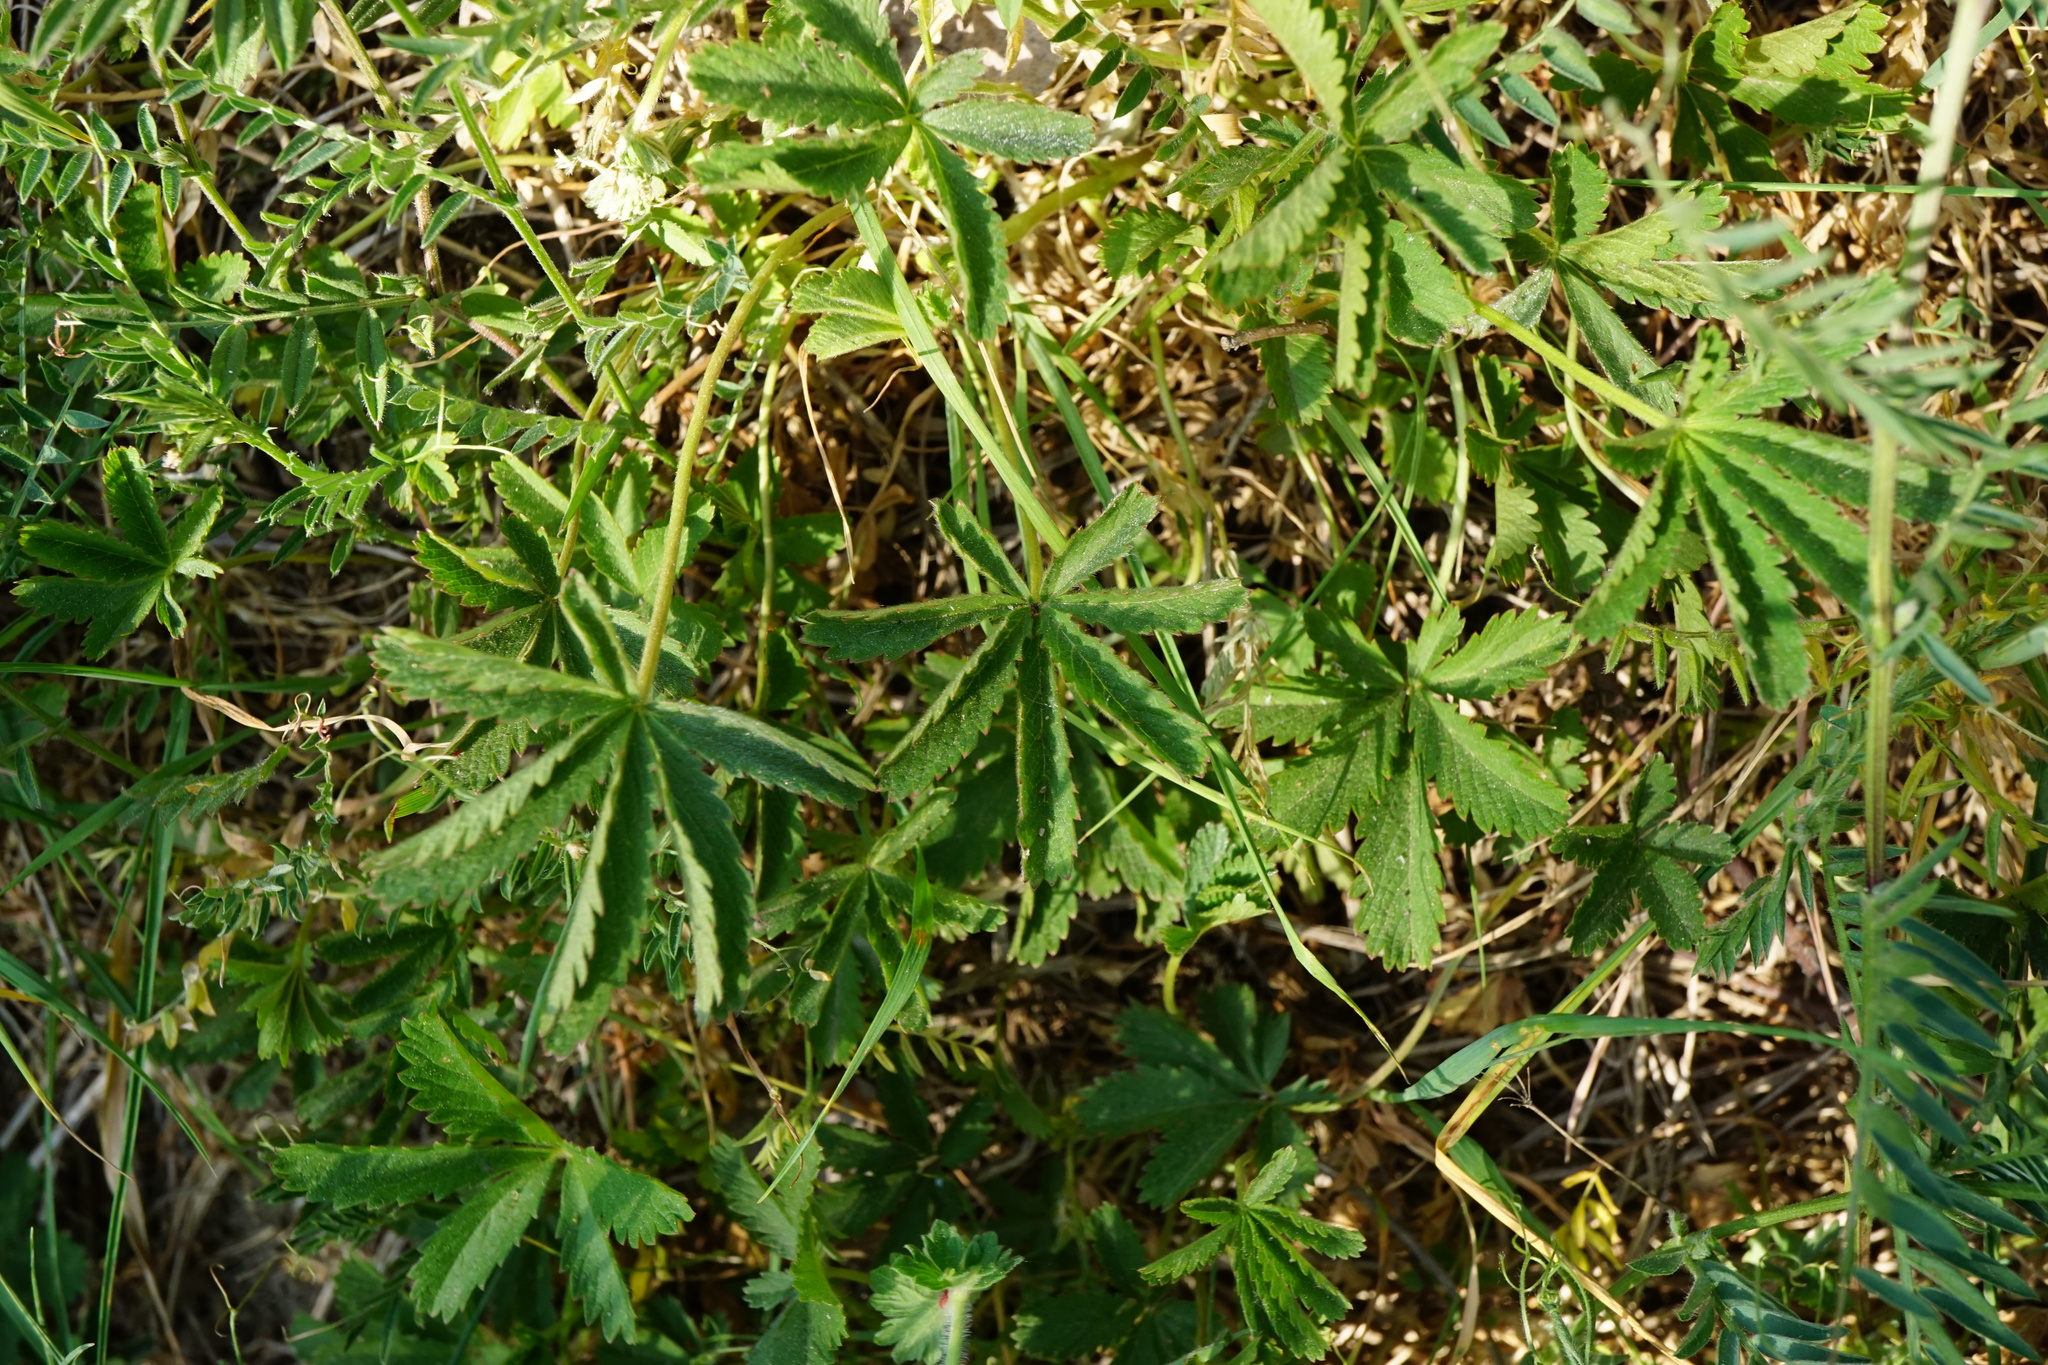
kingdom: Plantae
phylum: Tracheophyta
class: Magnoliopsida
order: Rosales
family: Rosaceae
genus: Potentilla
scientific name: Potentilla reptans
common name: Creeping cinquefoil
